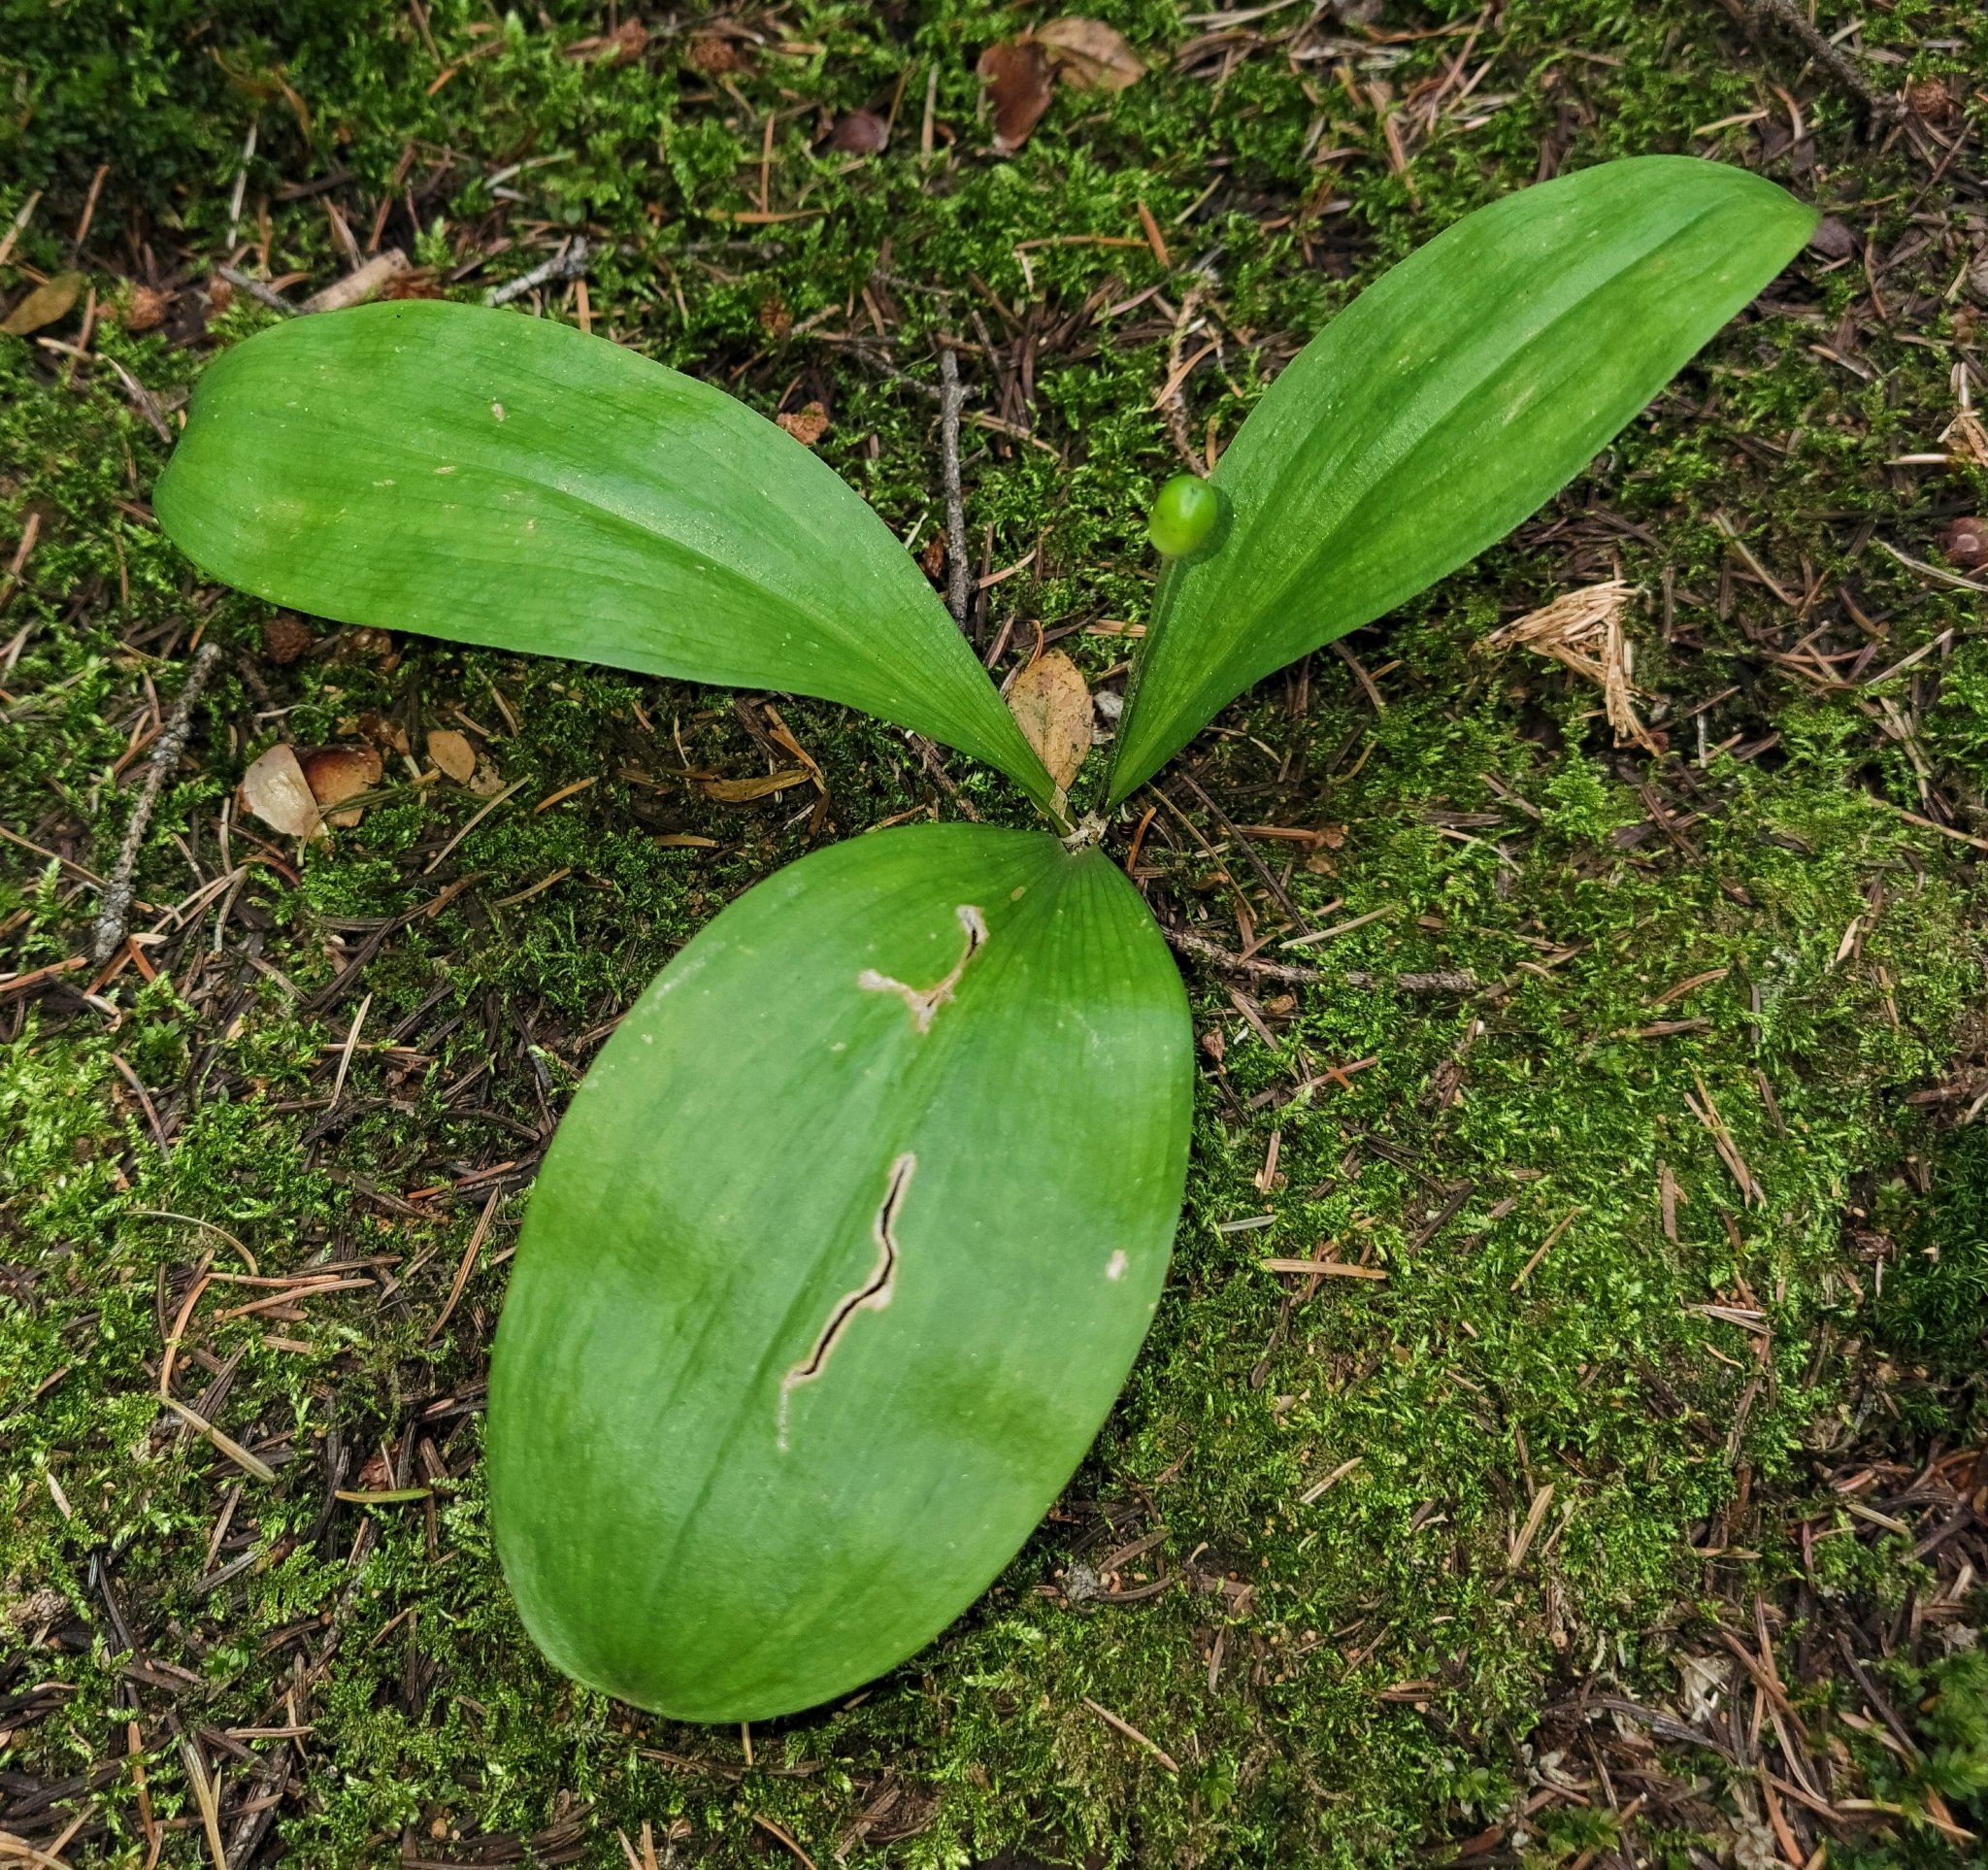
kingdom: Plantae
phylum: Tracheophyta
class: Liliopsida
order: Liliales
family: Liliaceae
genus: Clintonia
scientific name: Clintonia uniflora
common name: Queen's cup
